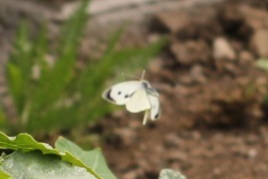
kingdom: Animalia
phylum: Arthropoda
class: Insecta
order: Lepidoptera
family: Pieridae
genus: Pieris
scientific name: Pieris brassicae
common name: Large white
